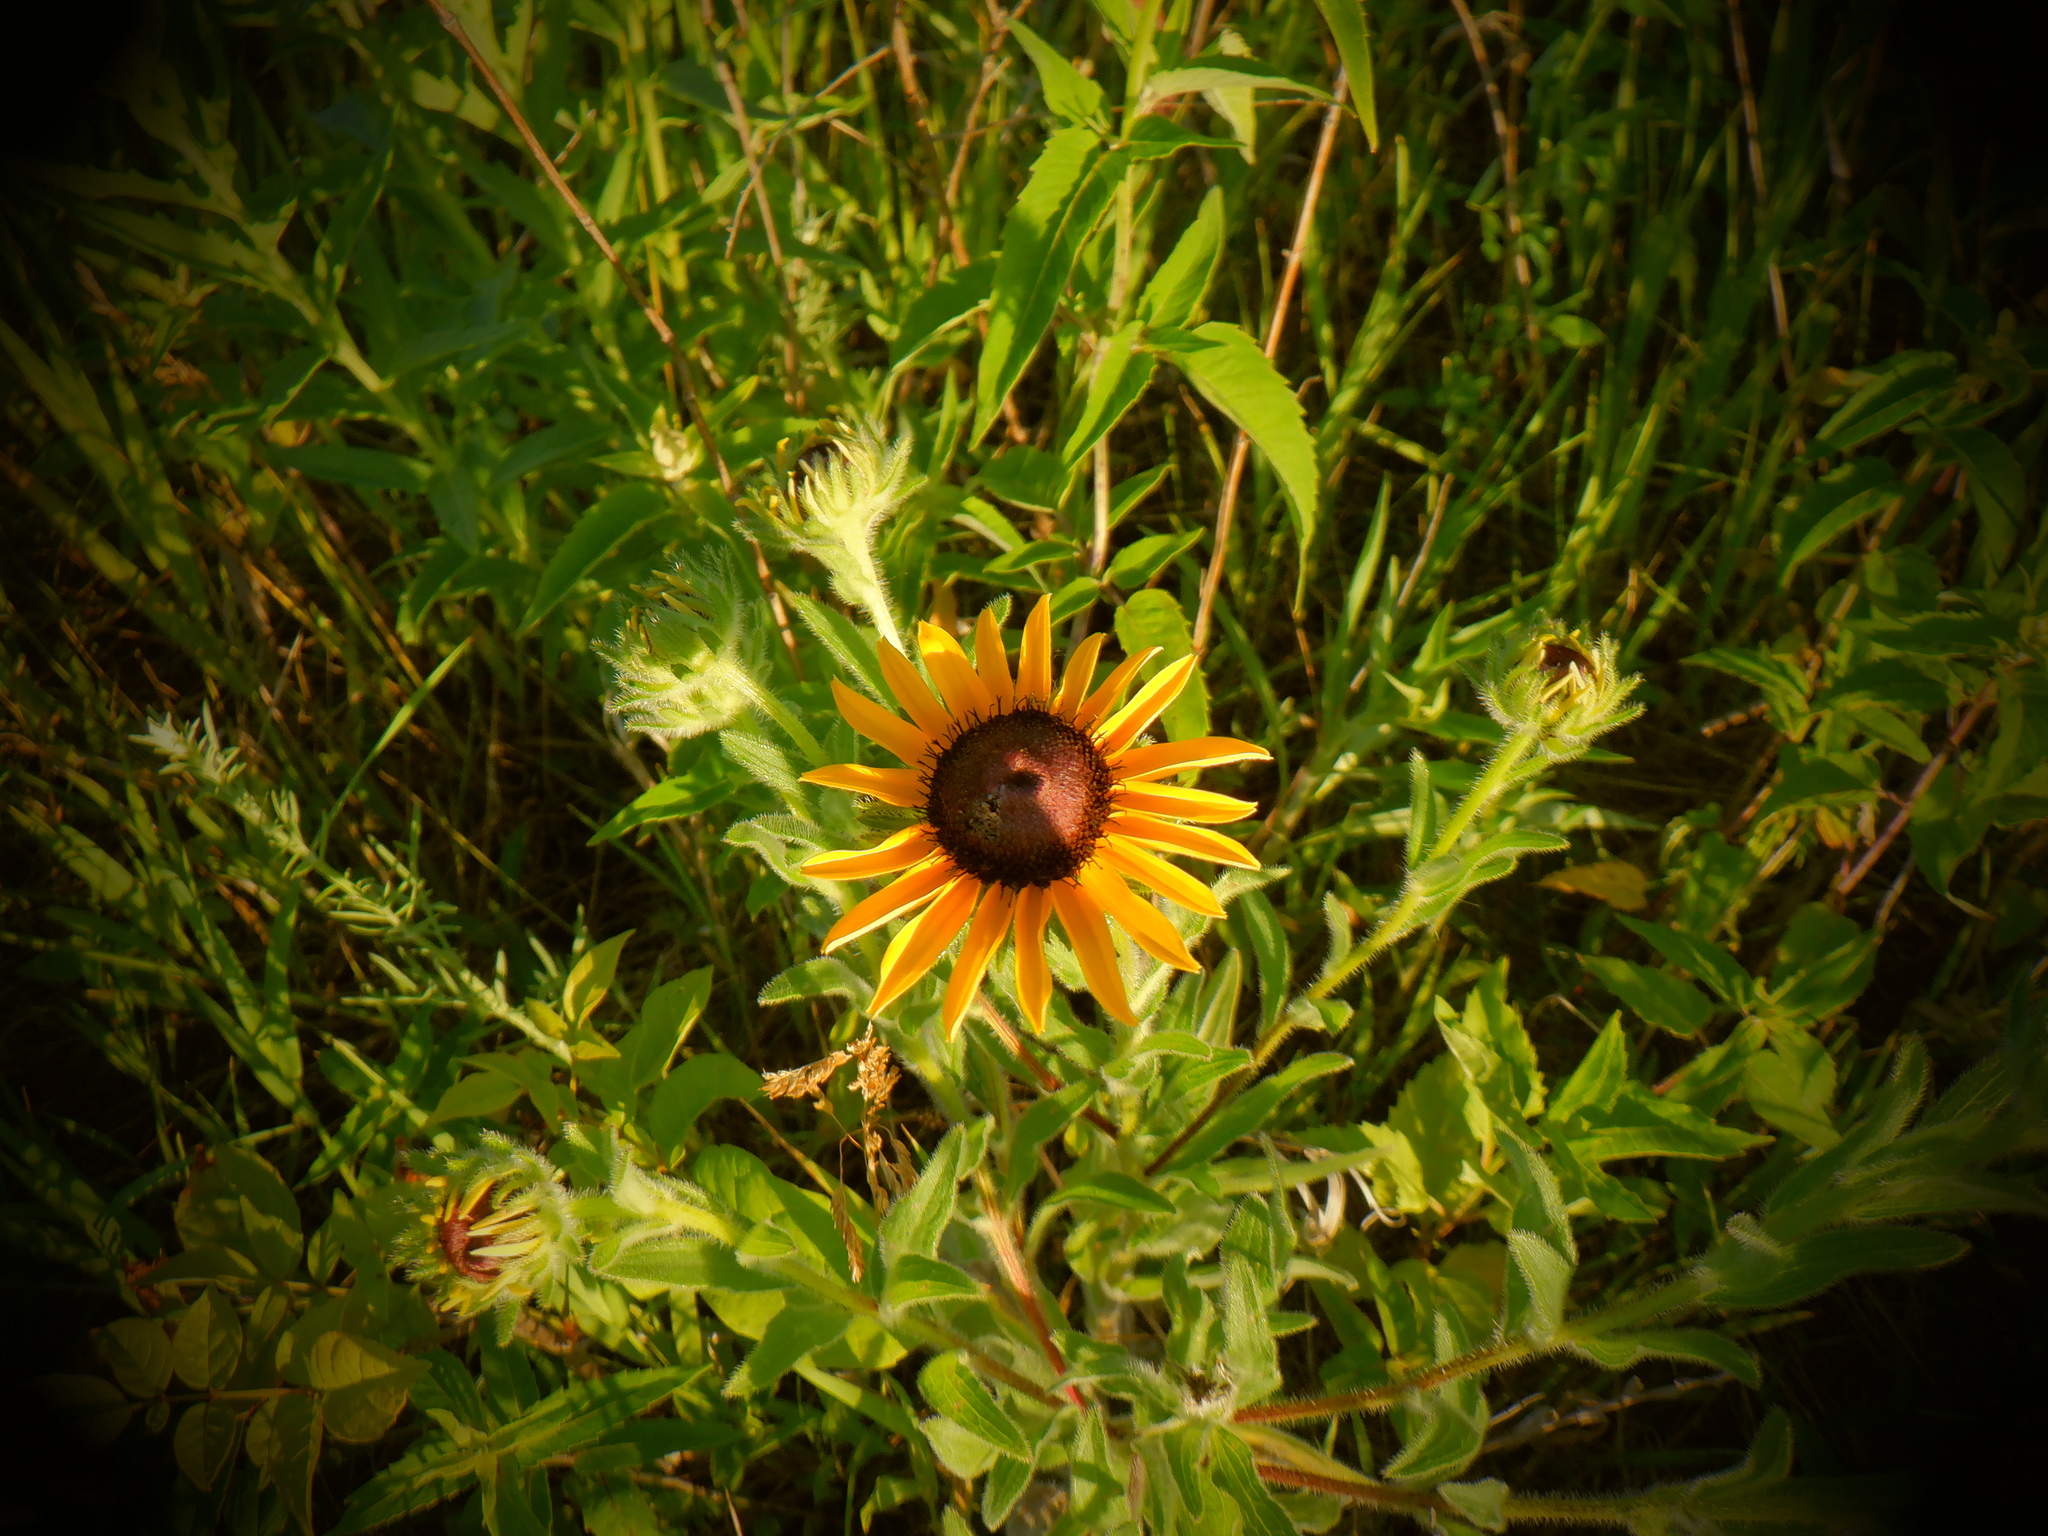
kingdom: Plantae
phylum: Tracheophyta
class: Magnoliopsida
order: Asterales
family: Asteraceae
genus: Rudbeckia
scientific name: Rudbeckia hirta
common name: Black-eyed-susan
